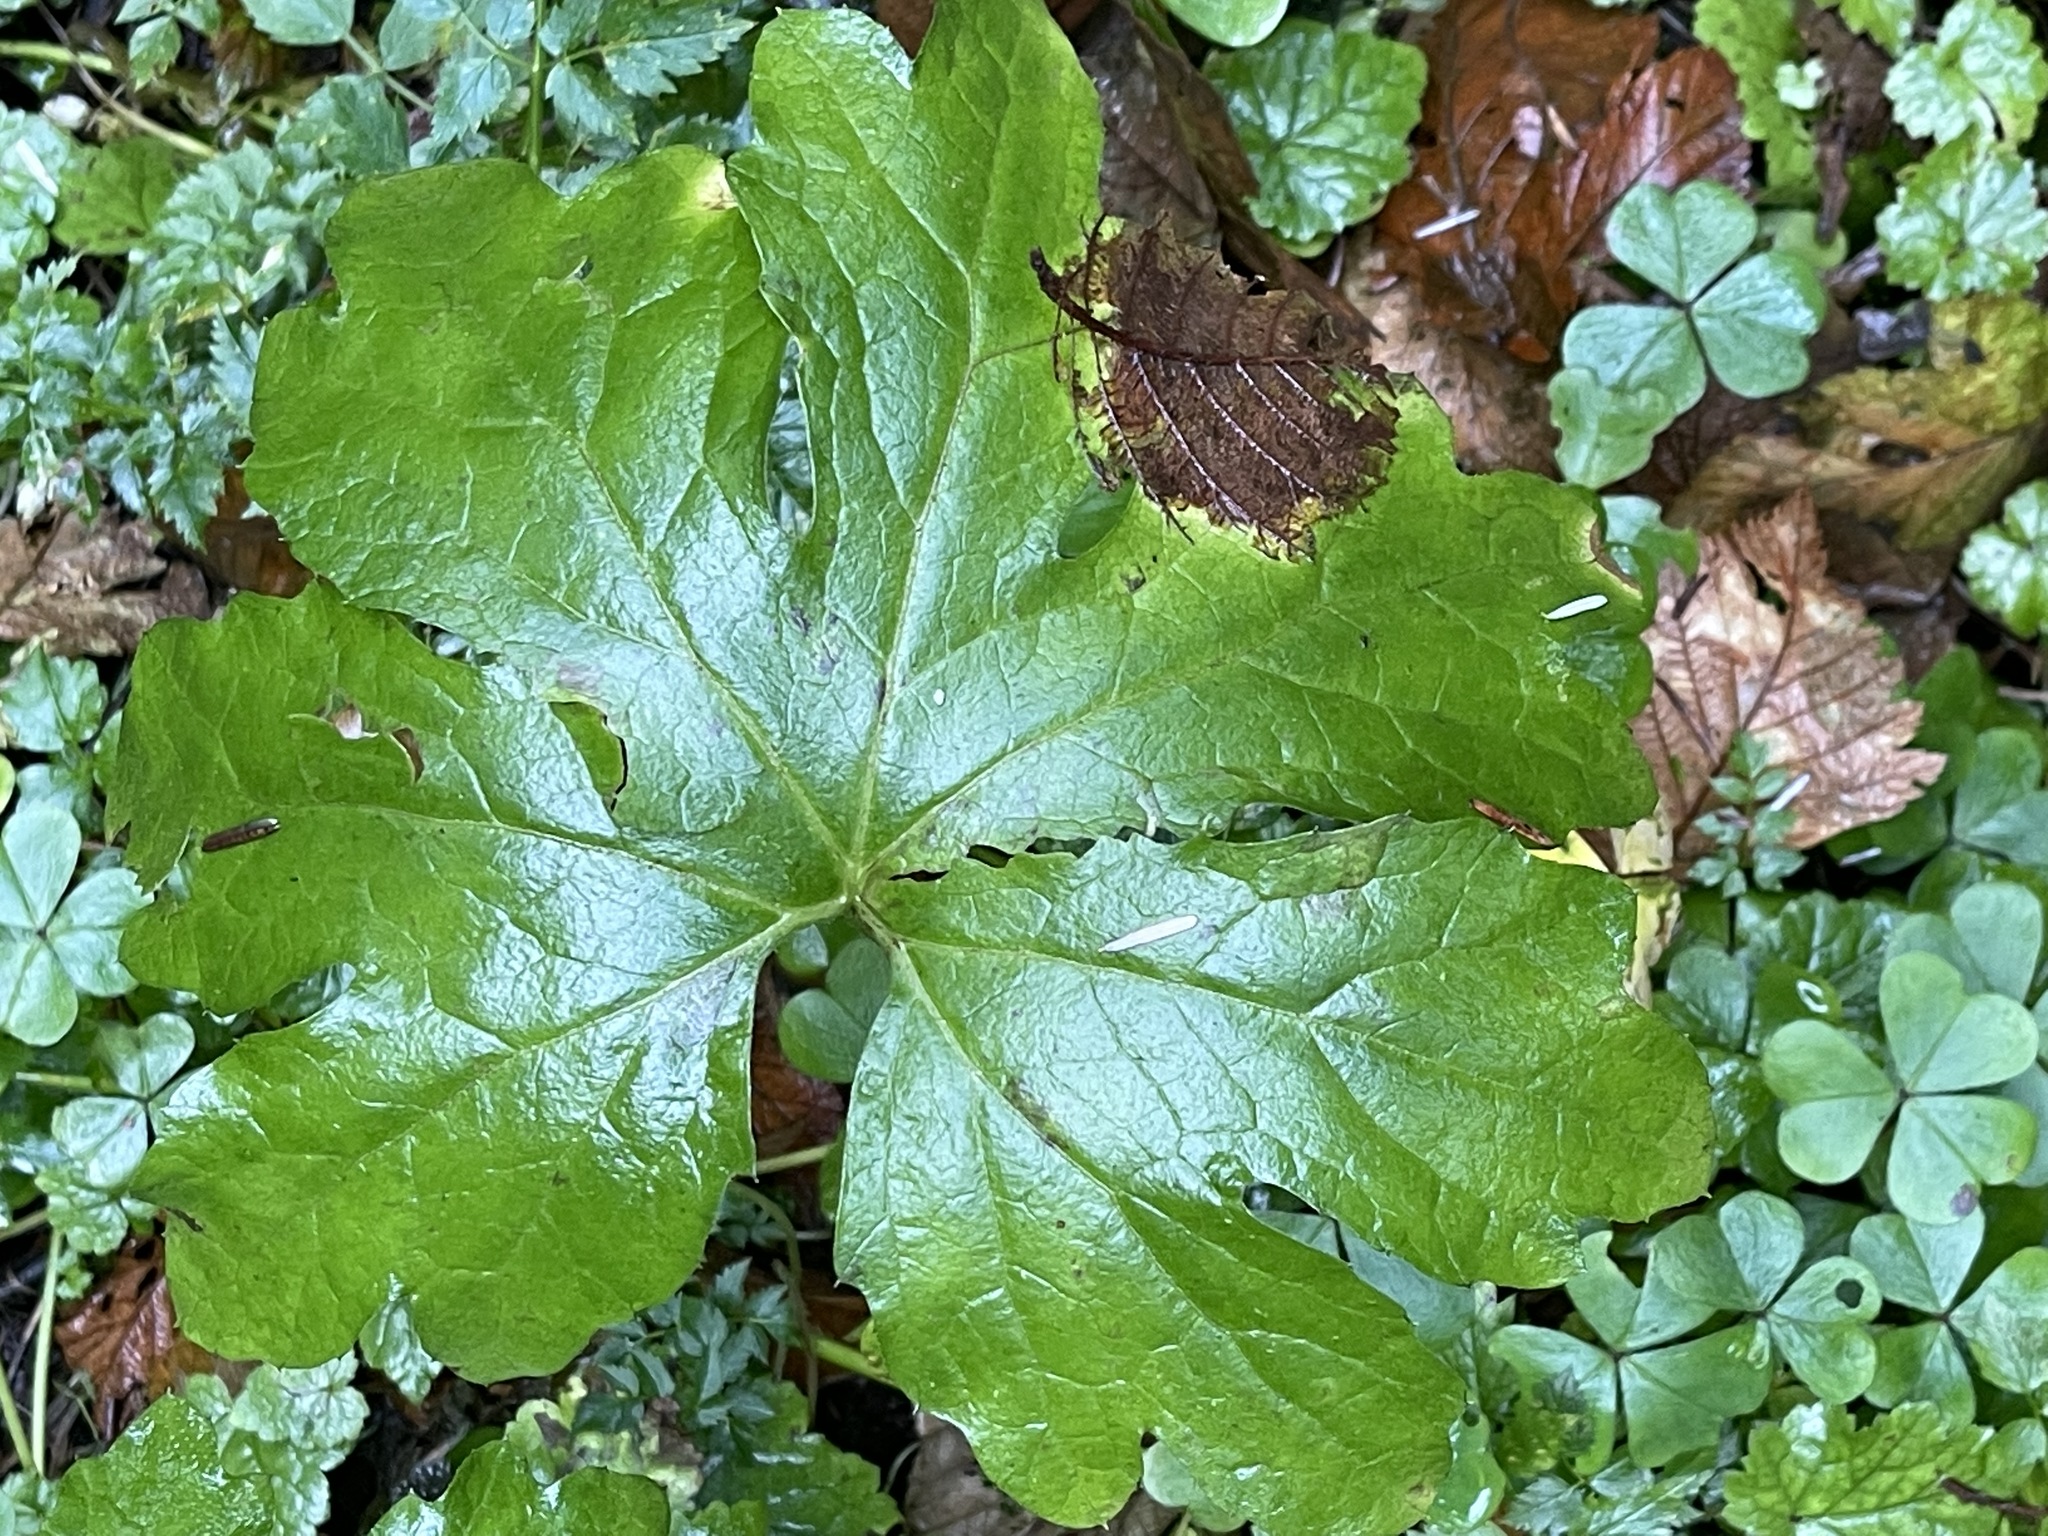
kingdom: Plantae
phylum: Tracheophyta
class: Magnoliopsida
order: Asterales
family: Asteraceae
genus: Petasites
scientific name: Petasites frigidus
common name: Arctic butterbur
